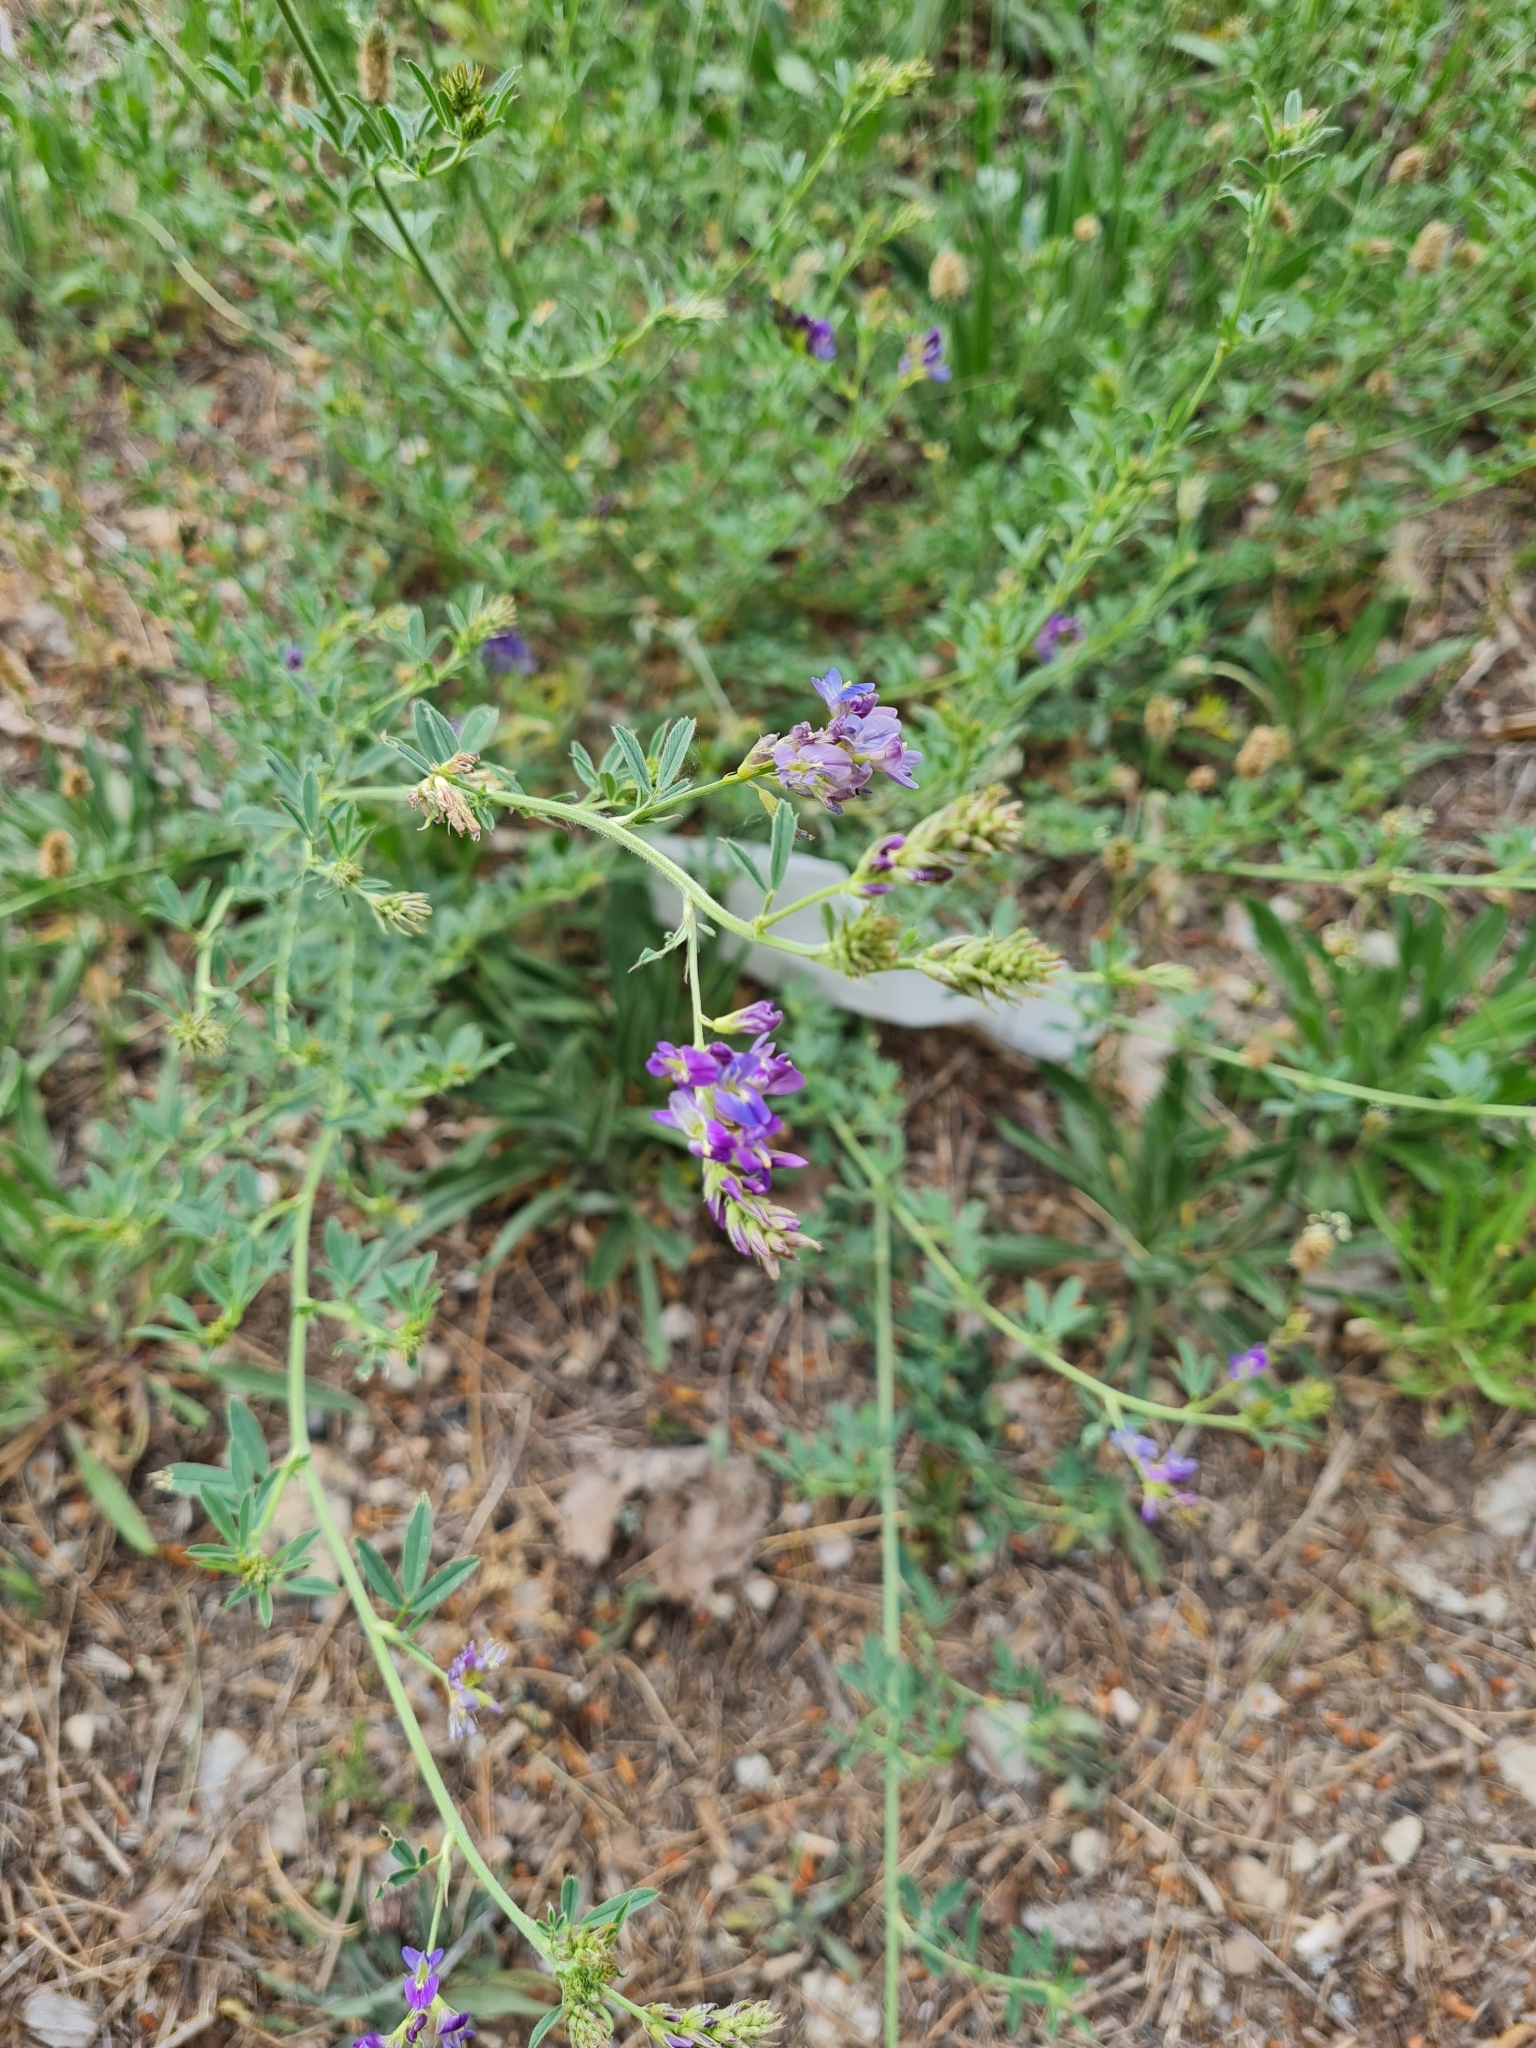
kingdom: Plantae
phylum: Tracheophyta
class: Magnoliopsida
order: Fabales
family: Fabaceae
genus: Medicago
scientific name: Medicago sativa
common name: Alfalfa
